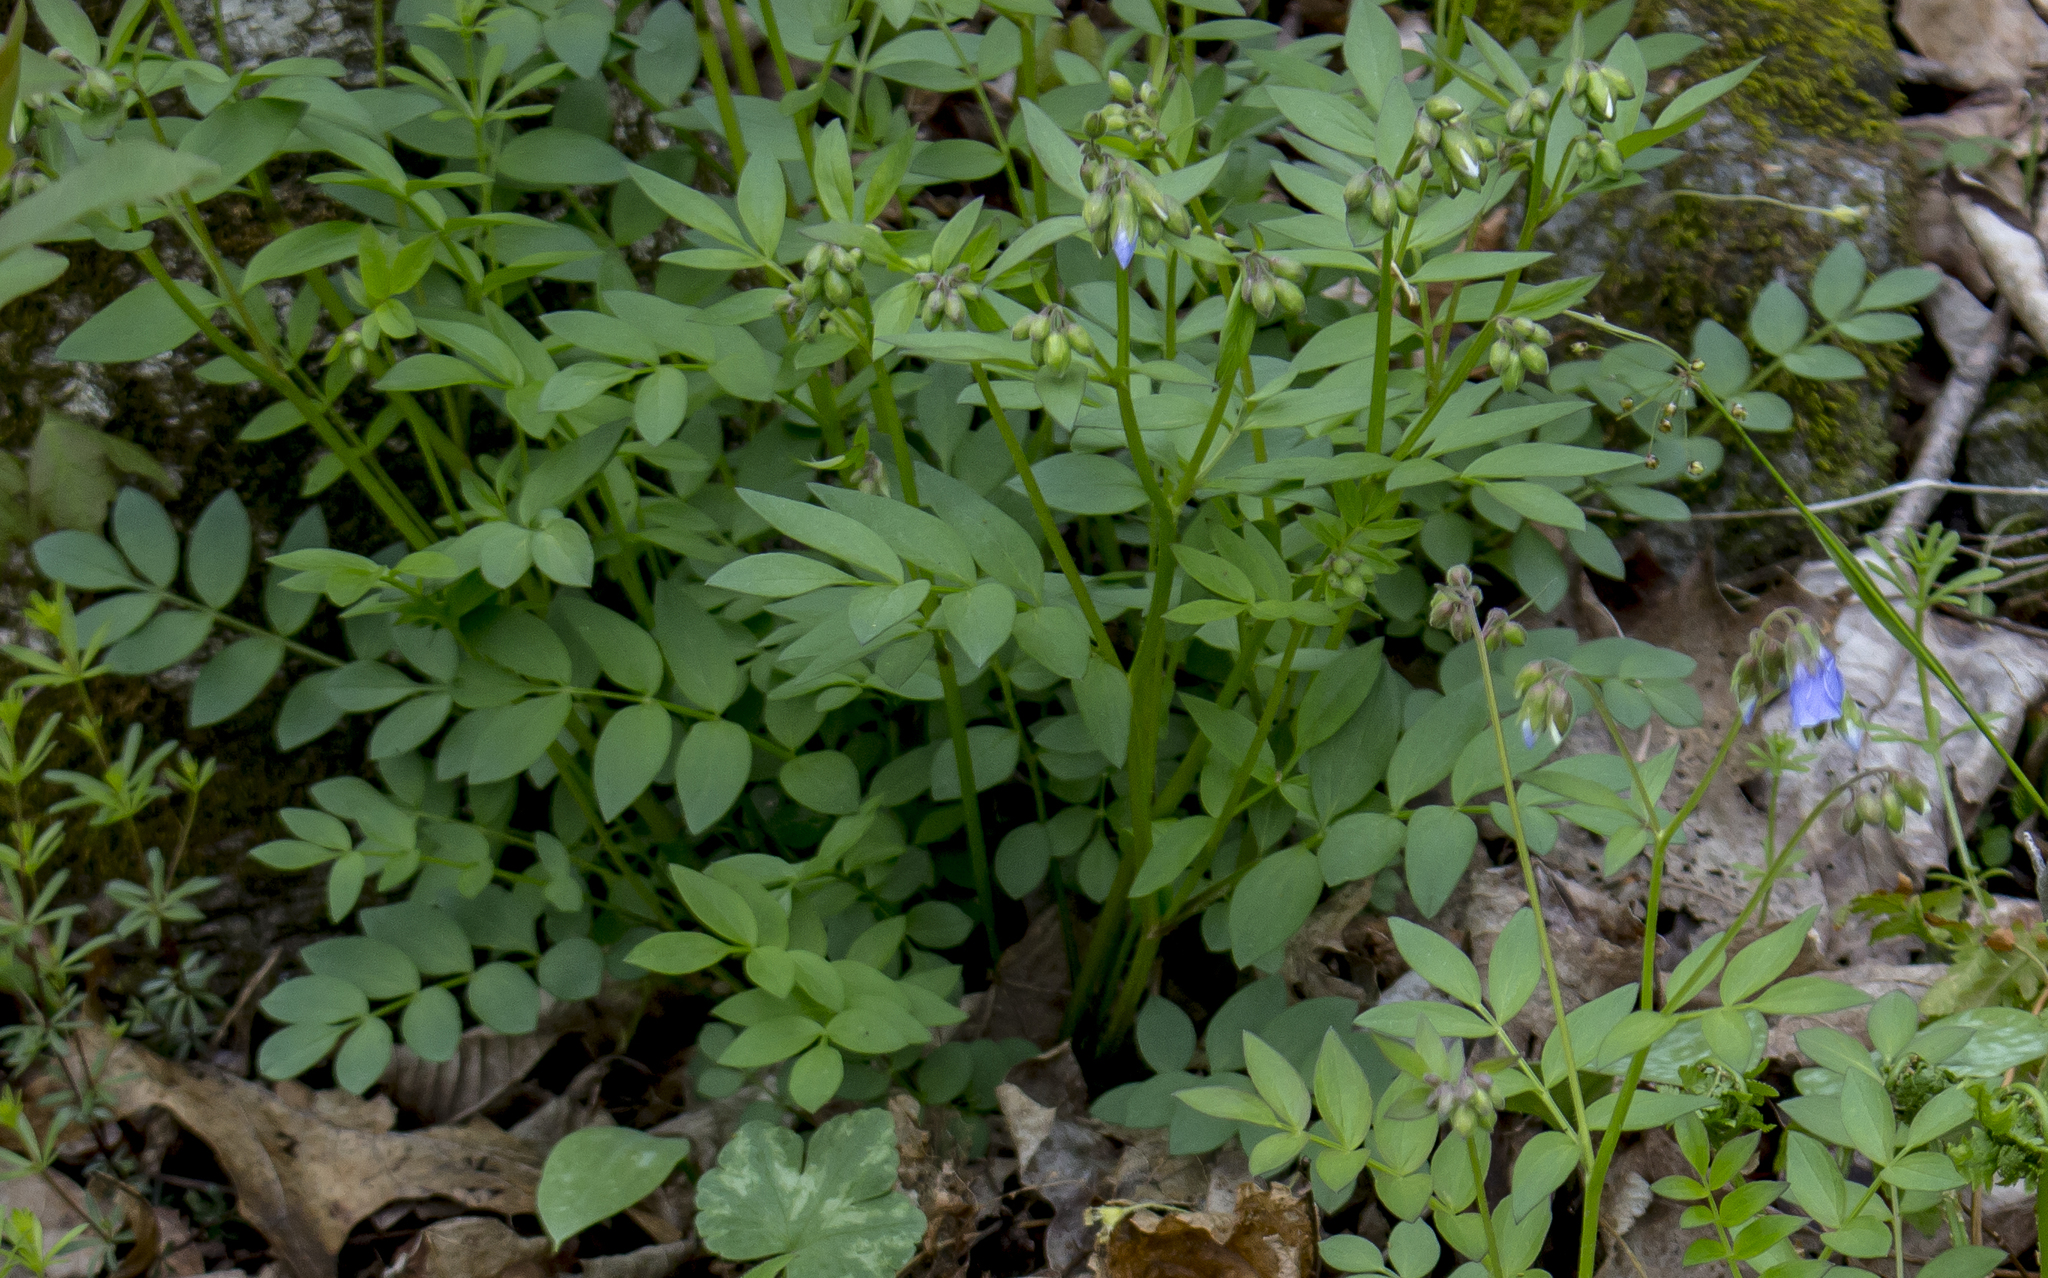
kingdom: Plantae
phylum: Tracheophyta
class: Magnoliopsida
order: Ericales
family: Polemoniaceae
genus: Polemonium
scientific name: Polemonium reptans
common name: Creeping jacob's-ladder
